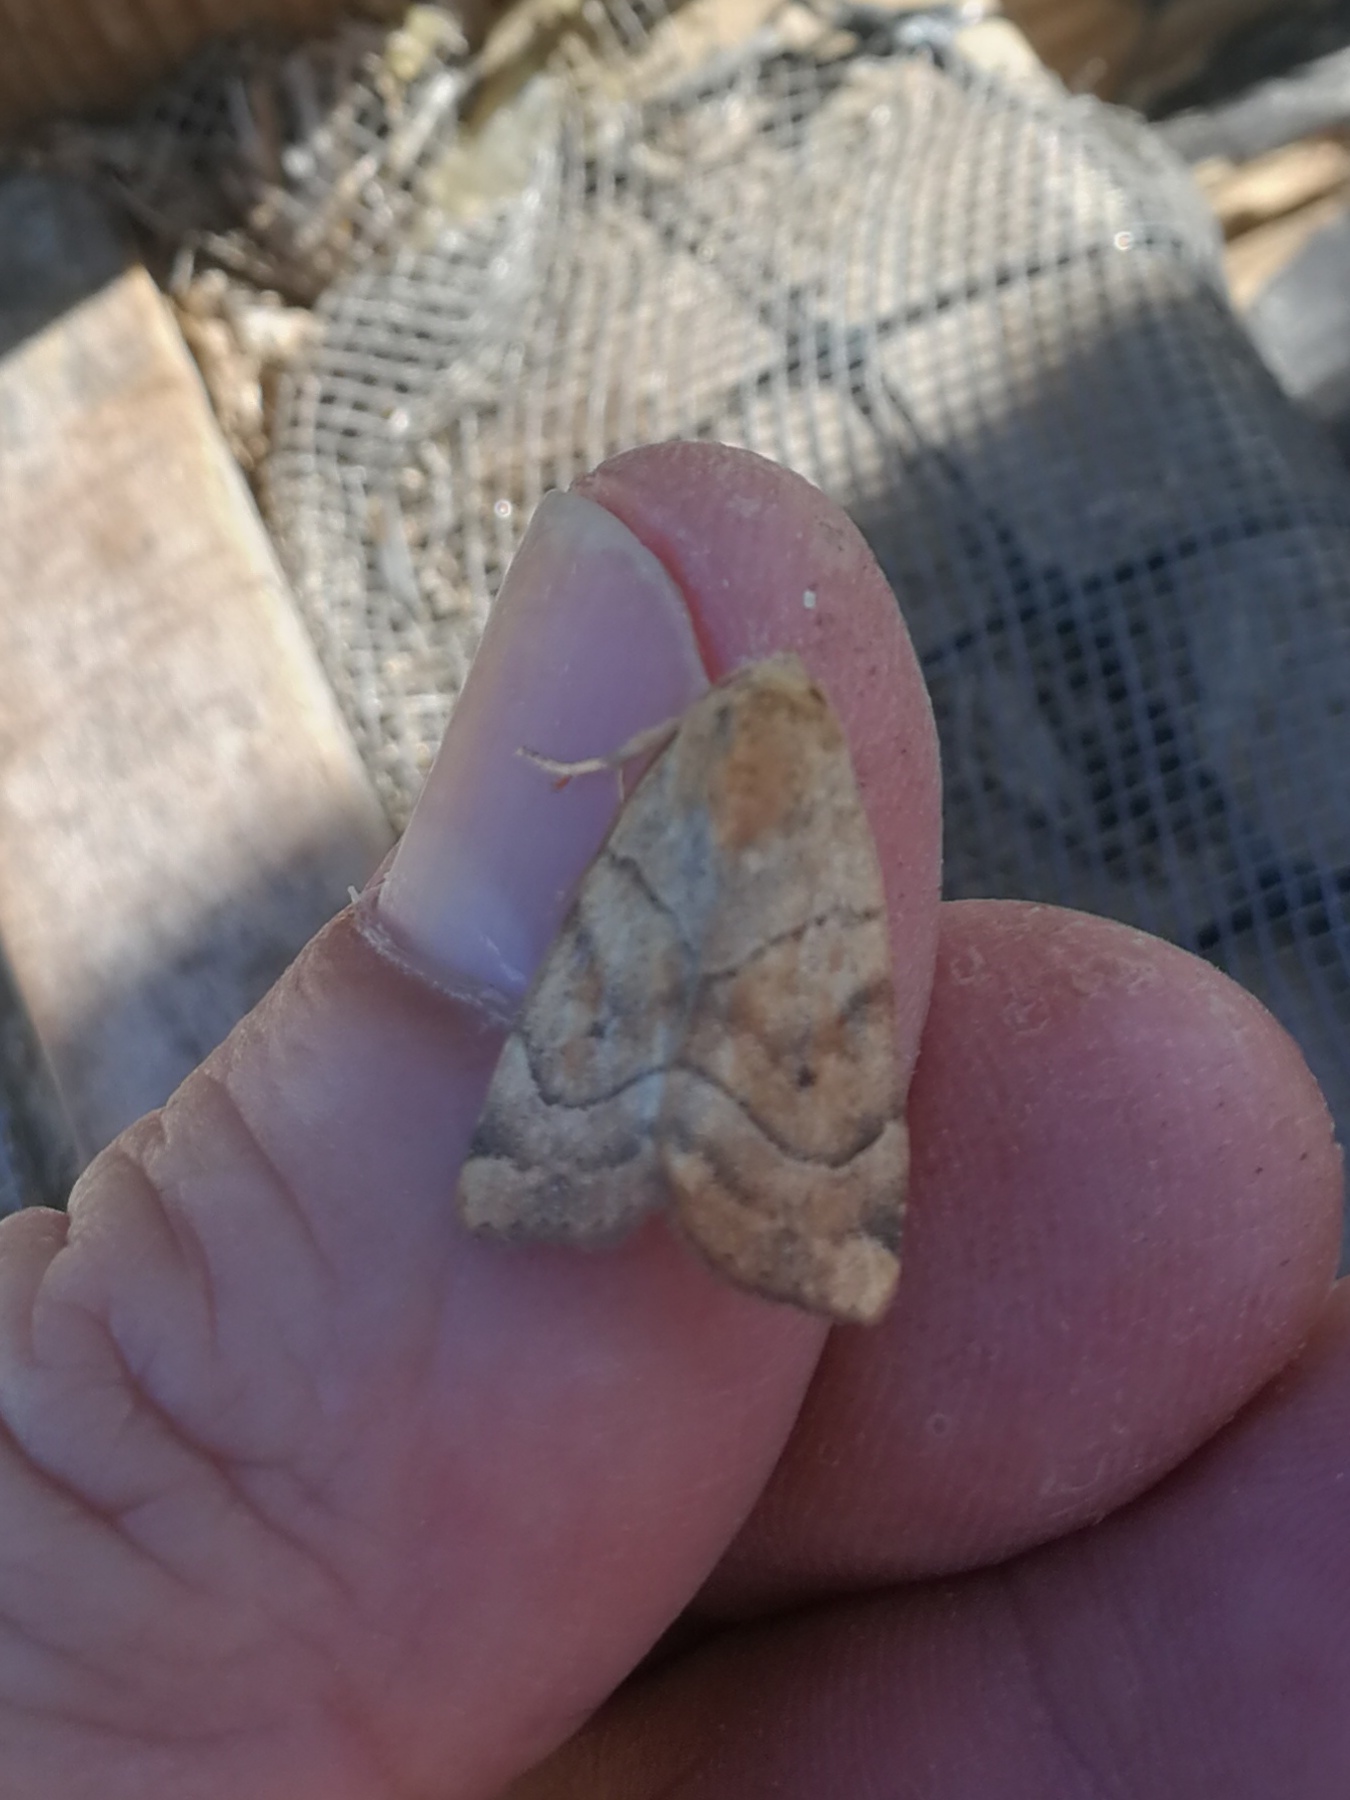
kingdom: Animalia
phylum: Arthropoda
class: Insecta
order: Lepidoptera
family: Noctuidae
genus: Cosmia
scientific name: Cosmia trapezina
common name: Dun-bar
